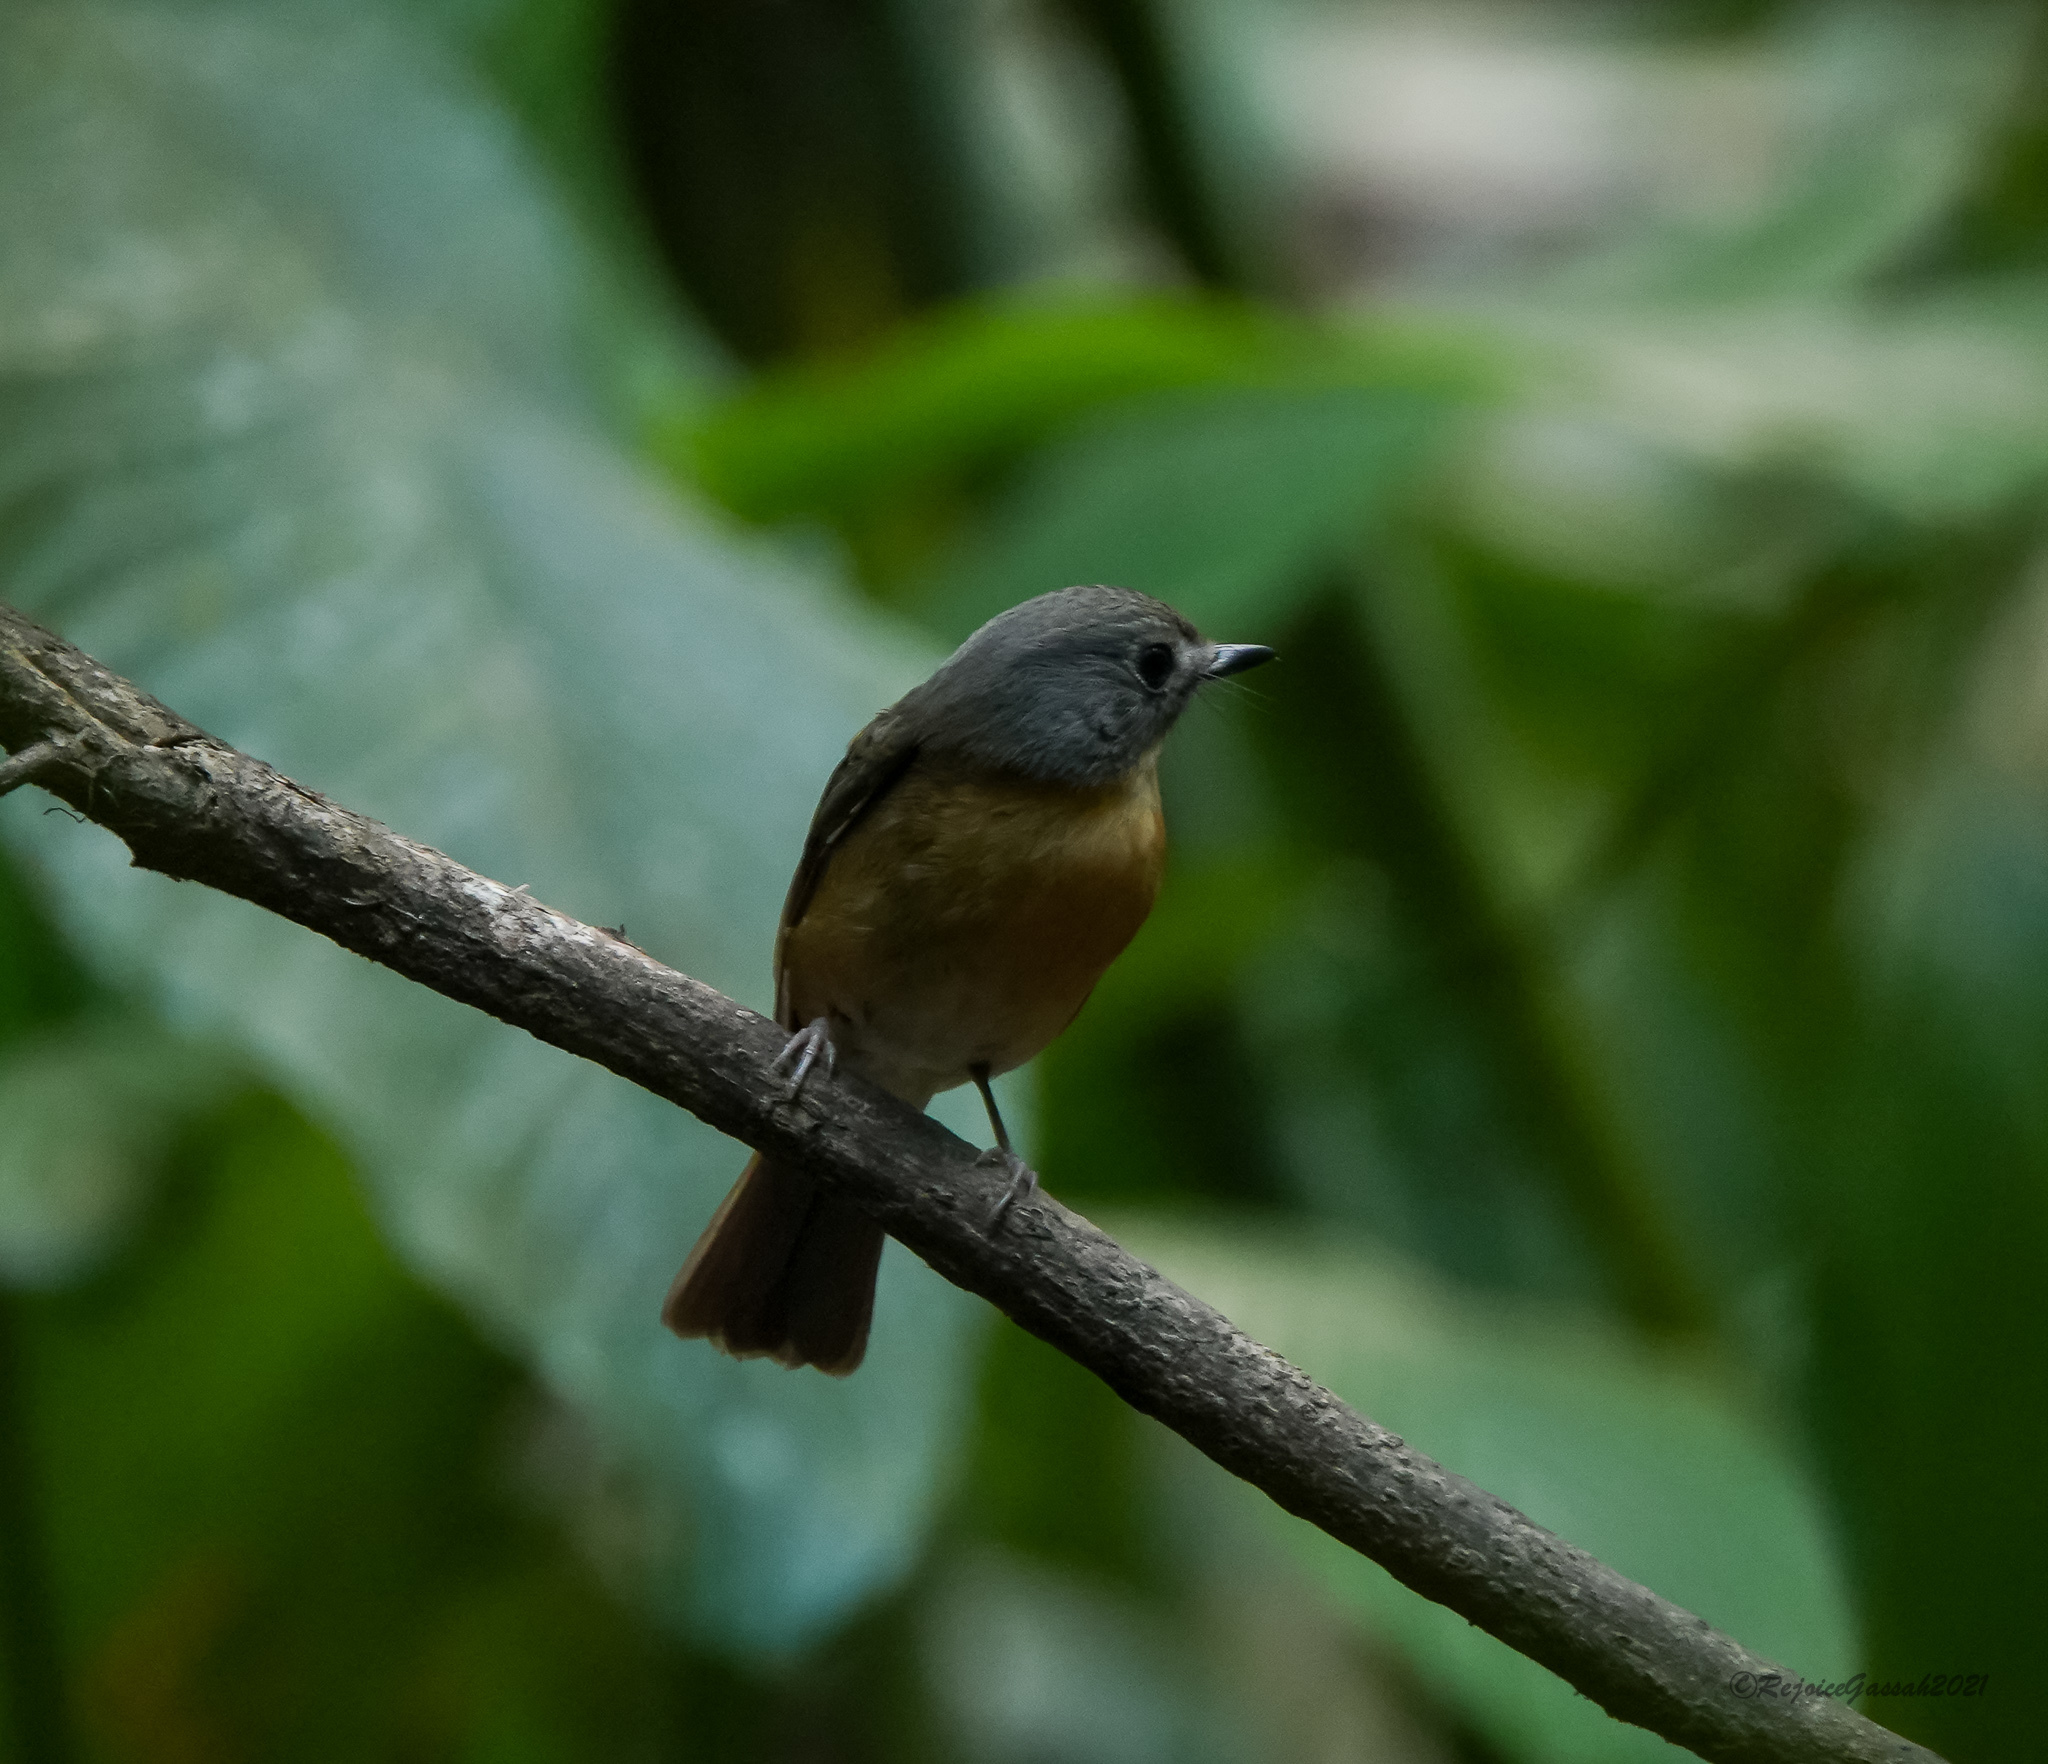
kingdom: Animalia
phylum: Chordata
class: Aves
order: Passeriformes
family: Muscicapidae
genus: Cyornis
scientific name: Cyornis poliogenys
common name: Pale-chinned blue flycatcher
